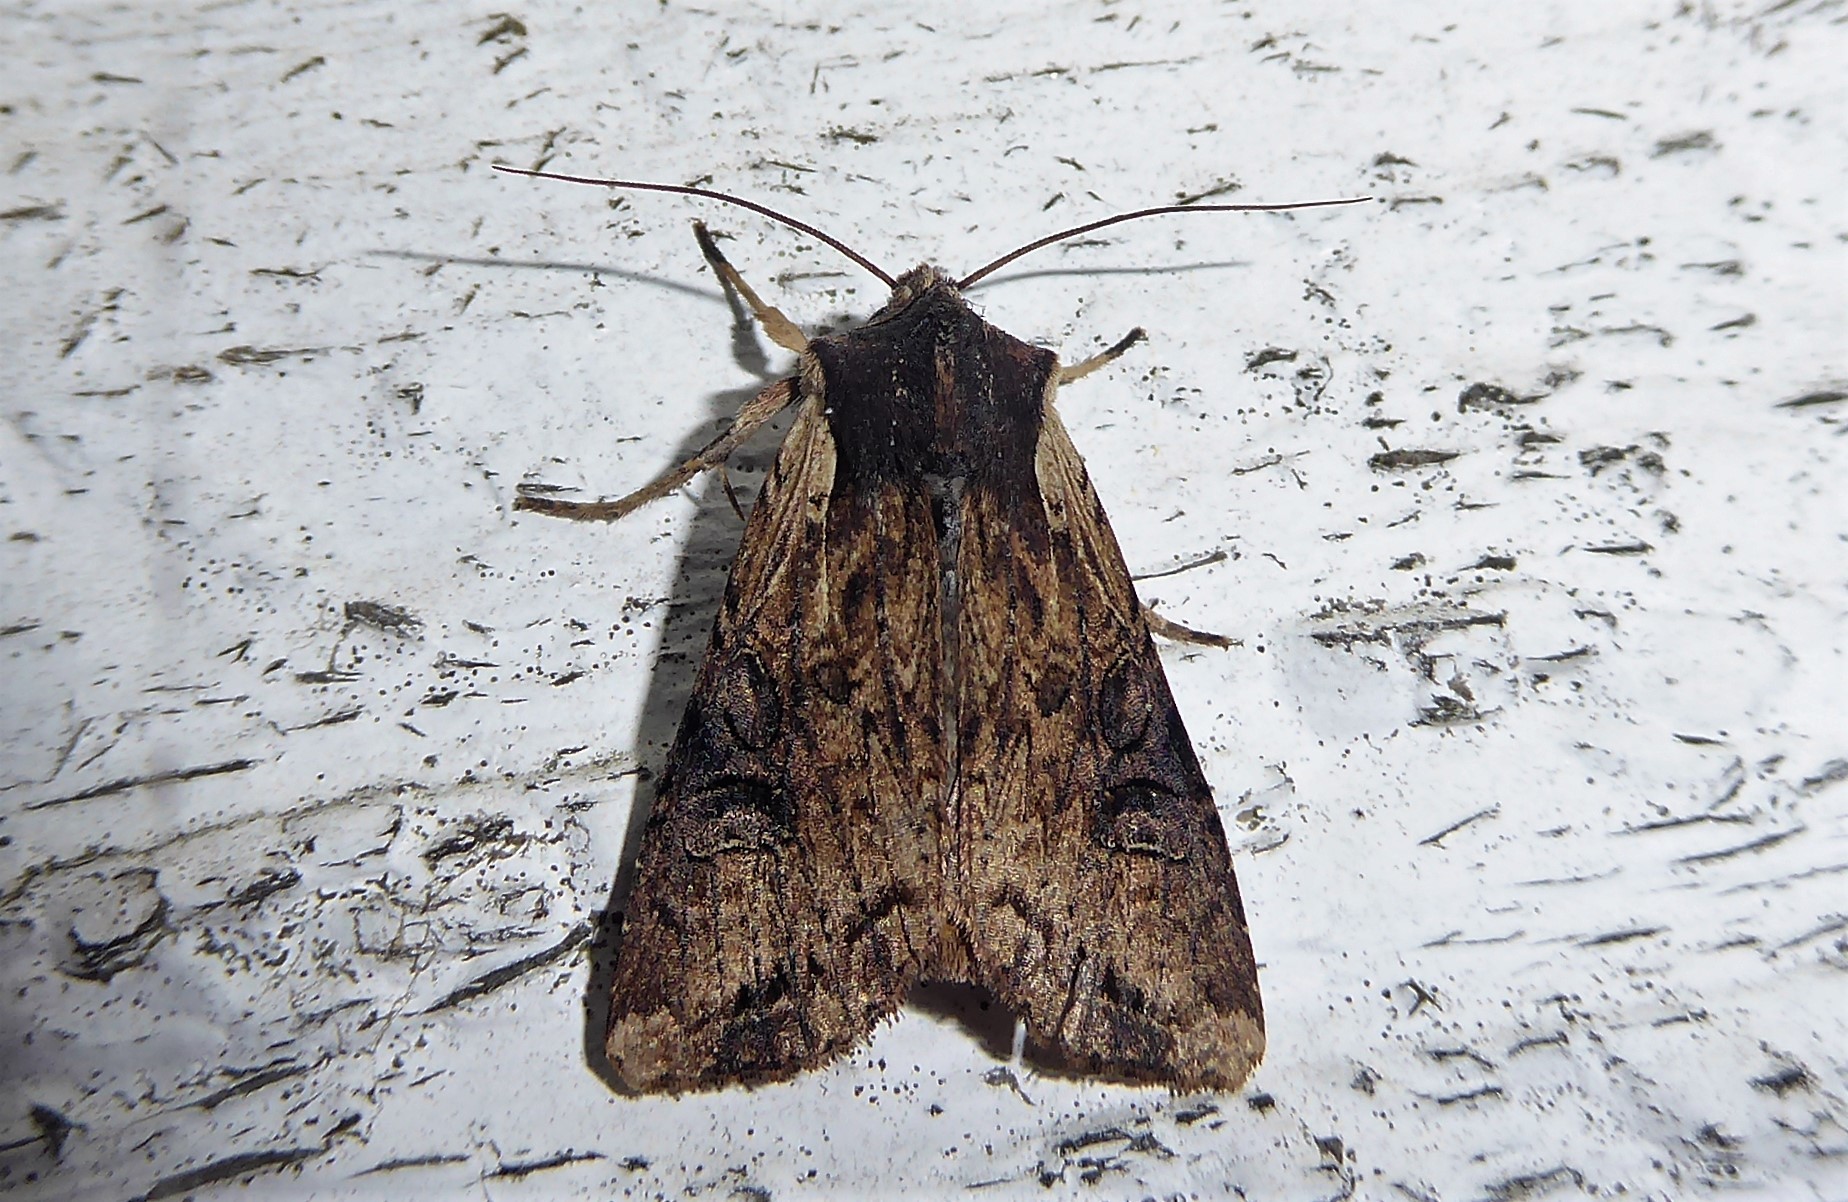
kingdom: Animalia
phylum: Arthropoda
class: Insecta
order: Lepidoptera
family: Noctuidae
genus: Ichneutica
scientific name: Ichneutica omoplaca
